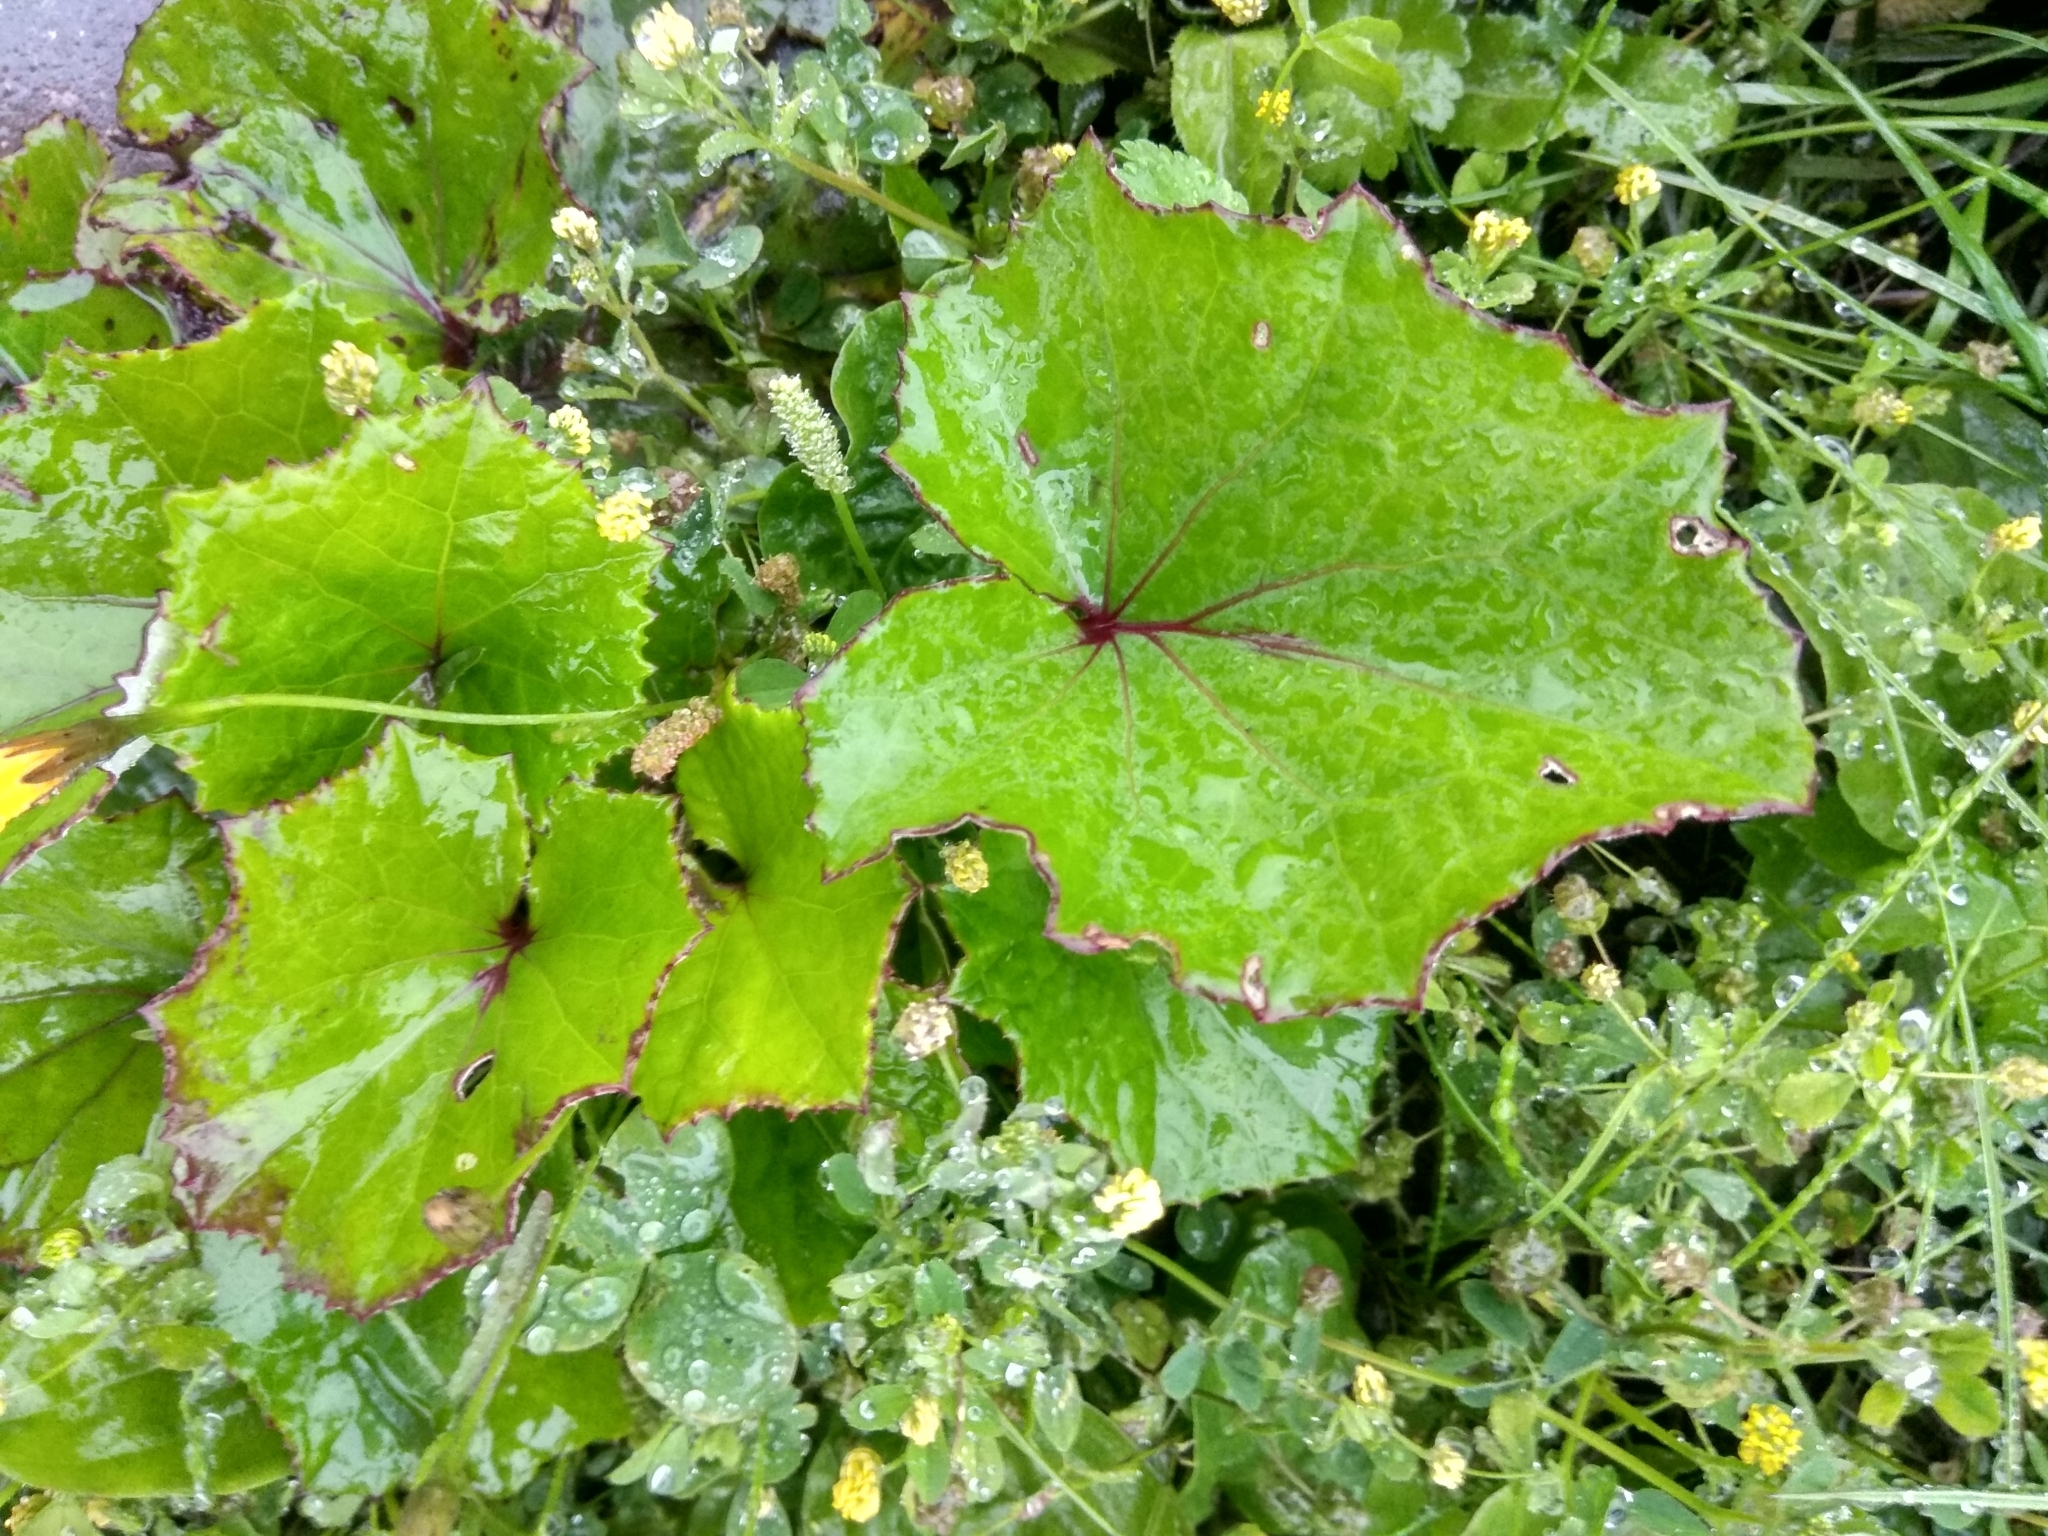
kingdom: Plantae
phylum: Tracheophyta
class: Magnoliopsida
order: Asterales
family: Asteraceae
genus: Tussilago
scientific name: Tussilago farfara
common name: Coltsfoot
